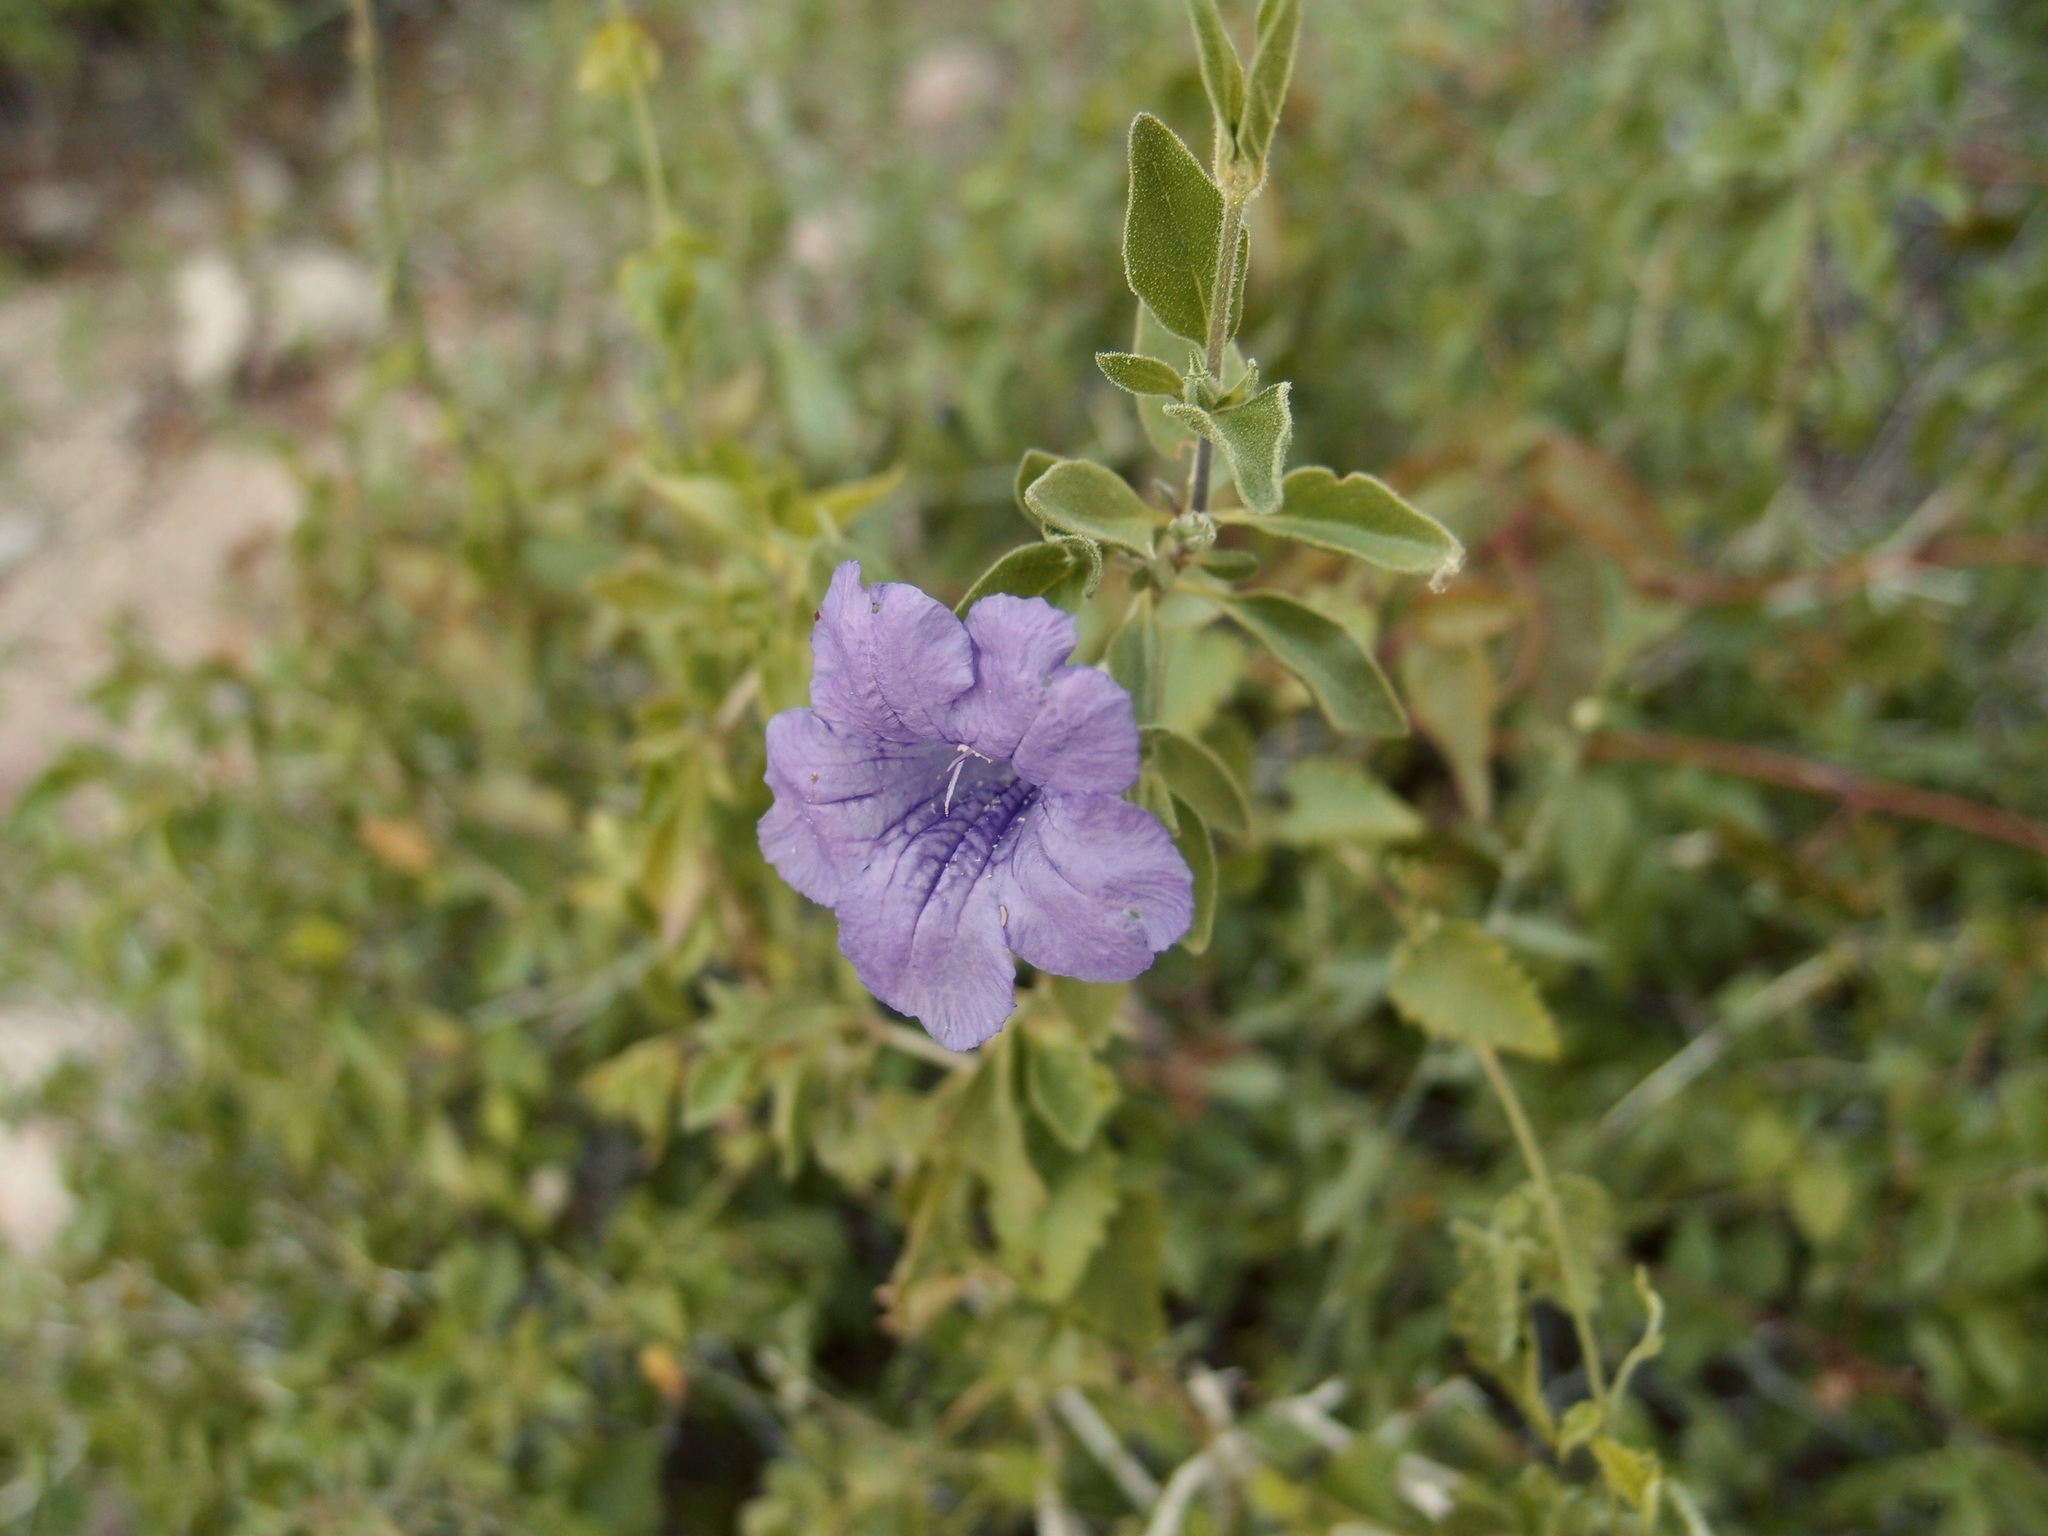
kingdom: Plantae
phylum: Tracheophyta
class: Magnoliopsida
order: Lamiales
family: Acanthaceae
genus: Ruellia
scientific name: Ruellia californica
